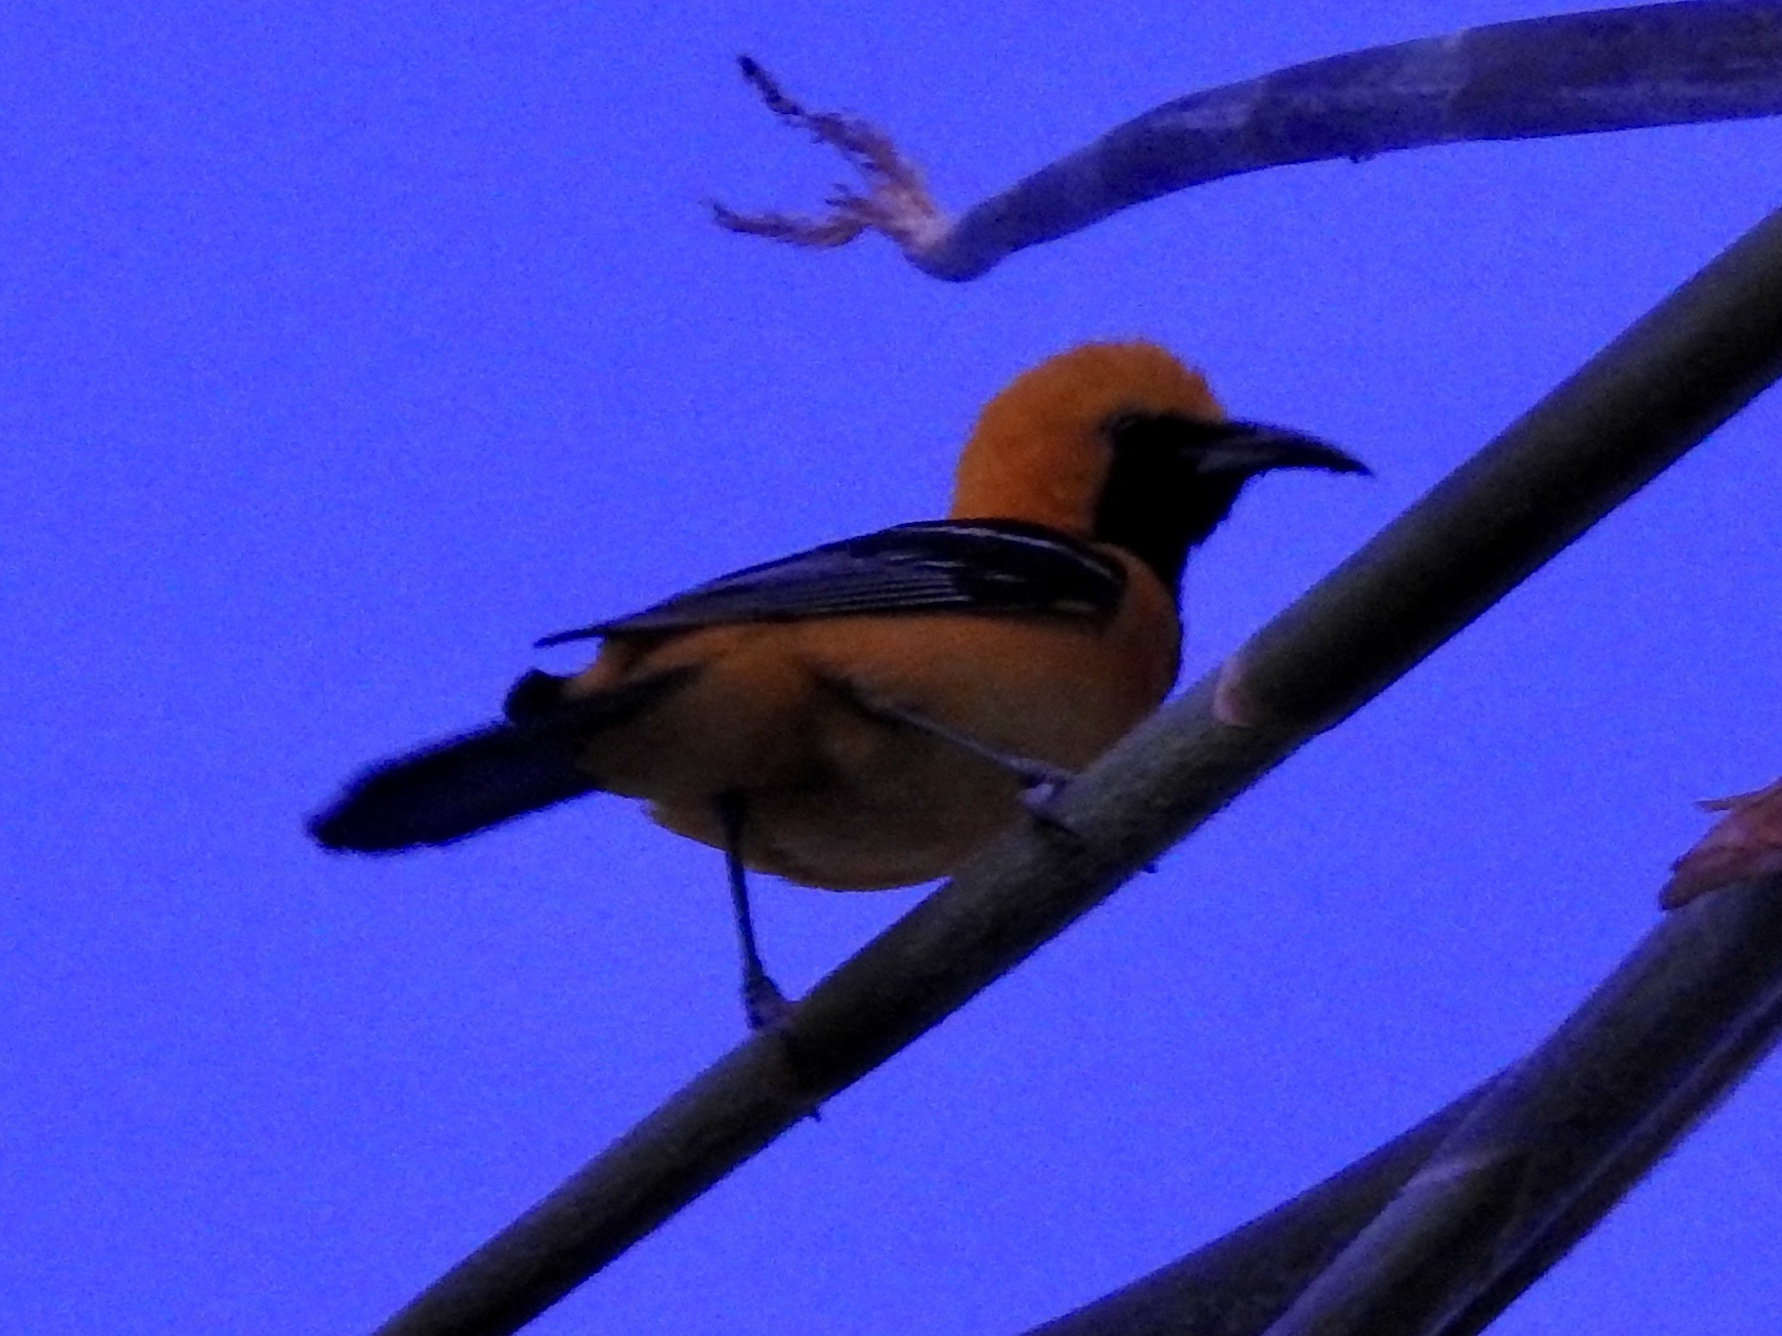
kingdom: Animalia
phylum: Chordata
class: Aves
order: Passeriformes
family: Icteridae
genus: Icterus
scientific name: Icterus cucullatus
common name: Hooded oriole
